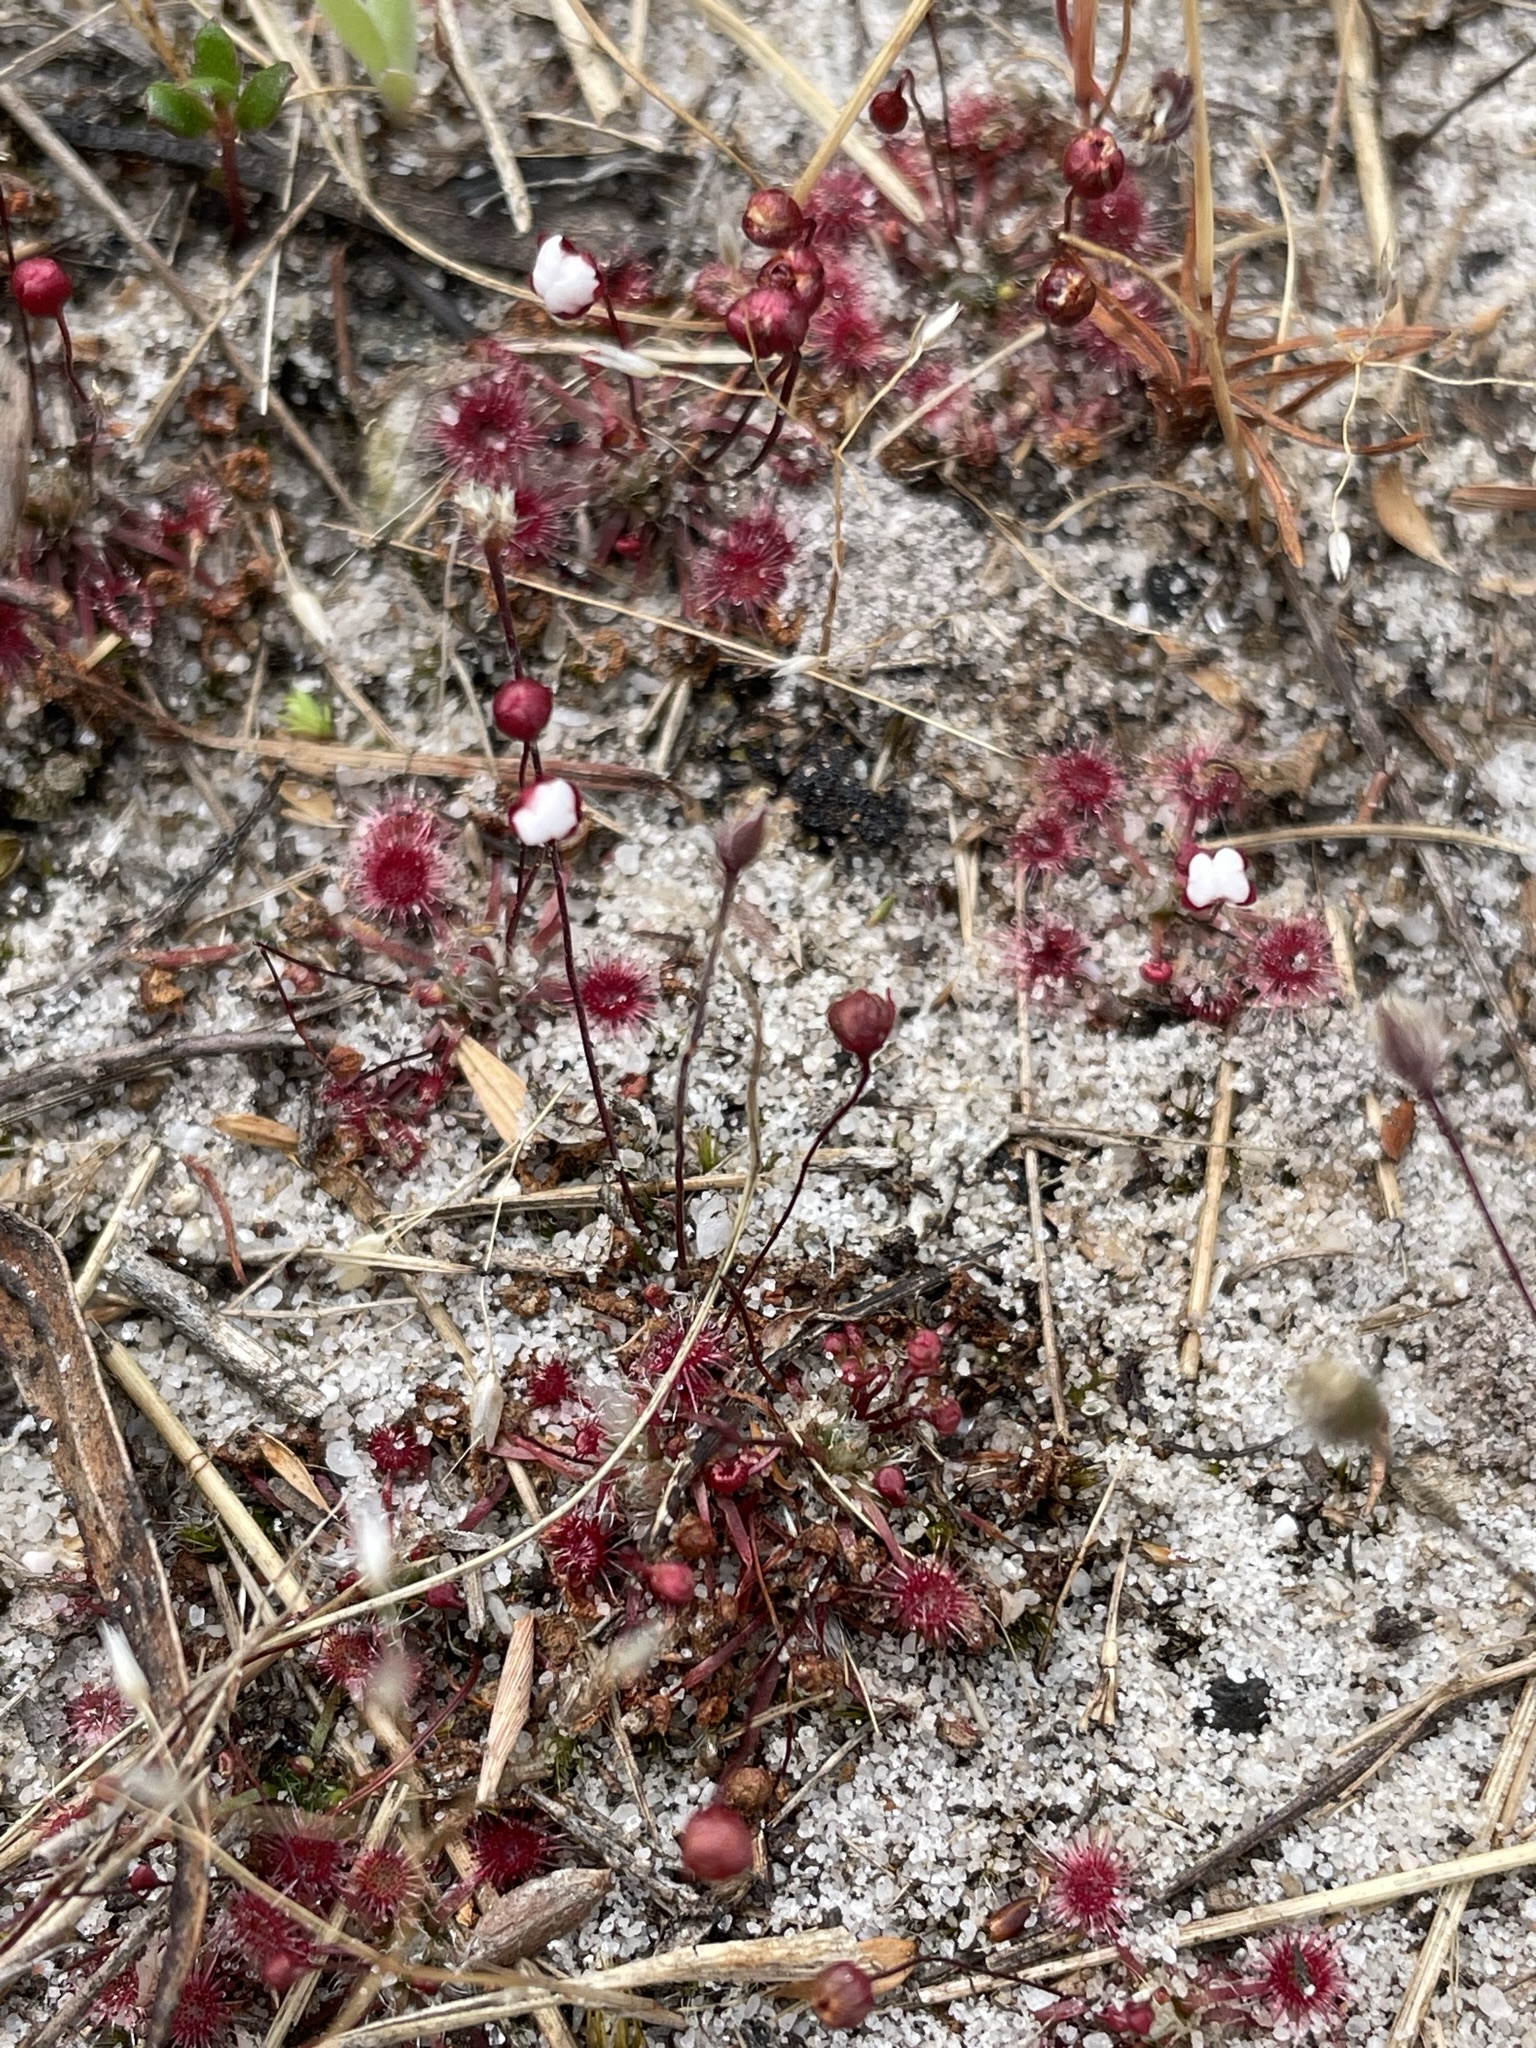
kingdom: Plantae
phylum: Tracheophyta
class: Magnoliopsida
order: Caryophyllales
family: Droseraceae
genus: Drosera
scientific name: Drosera pygmaea
